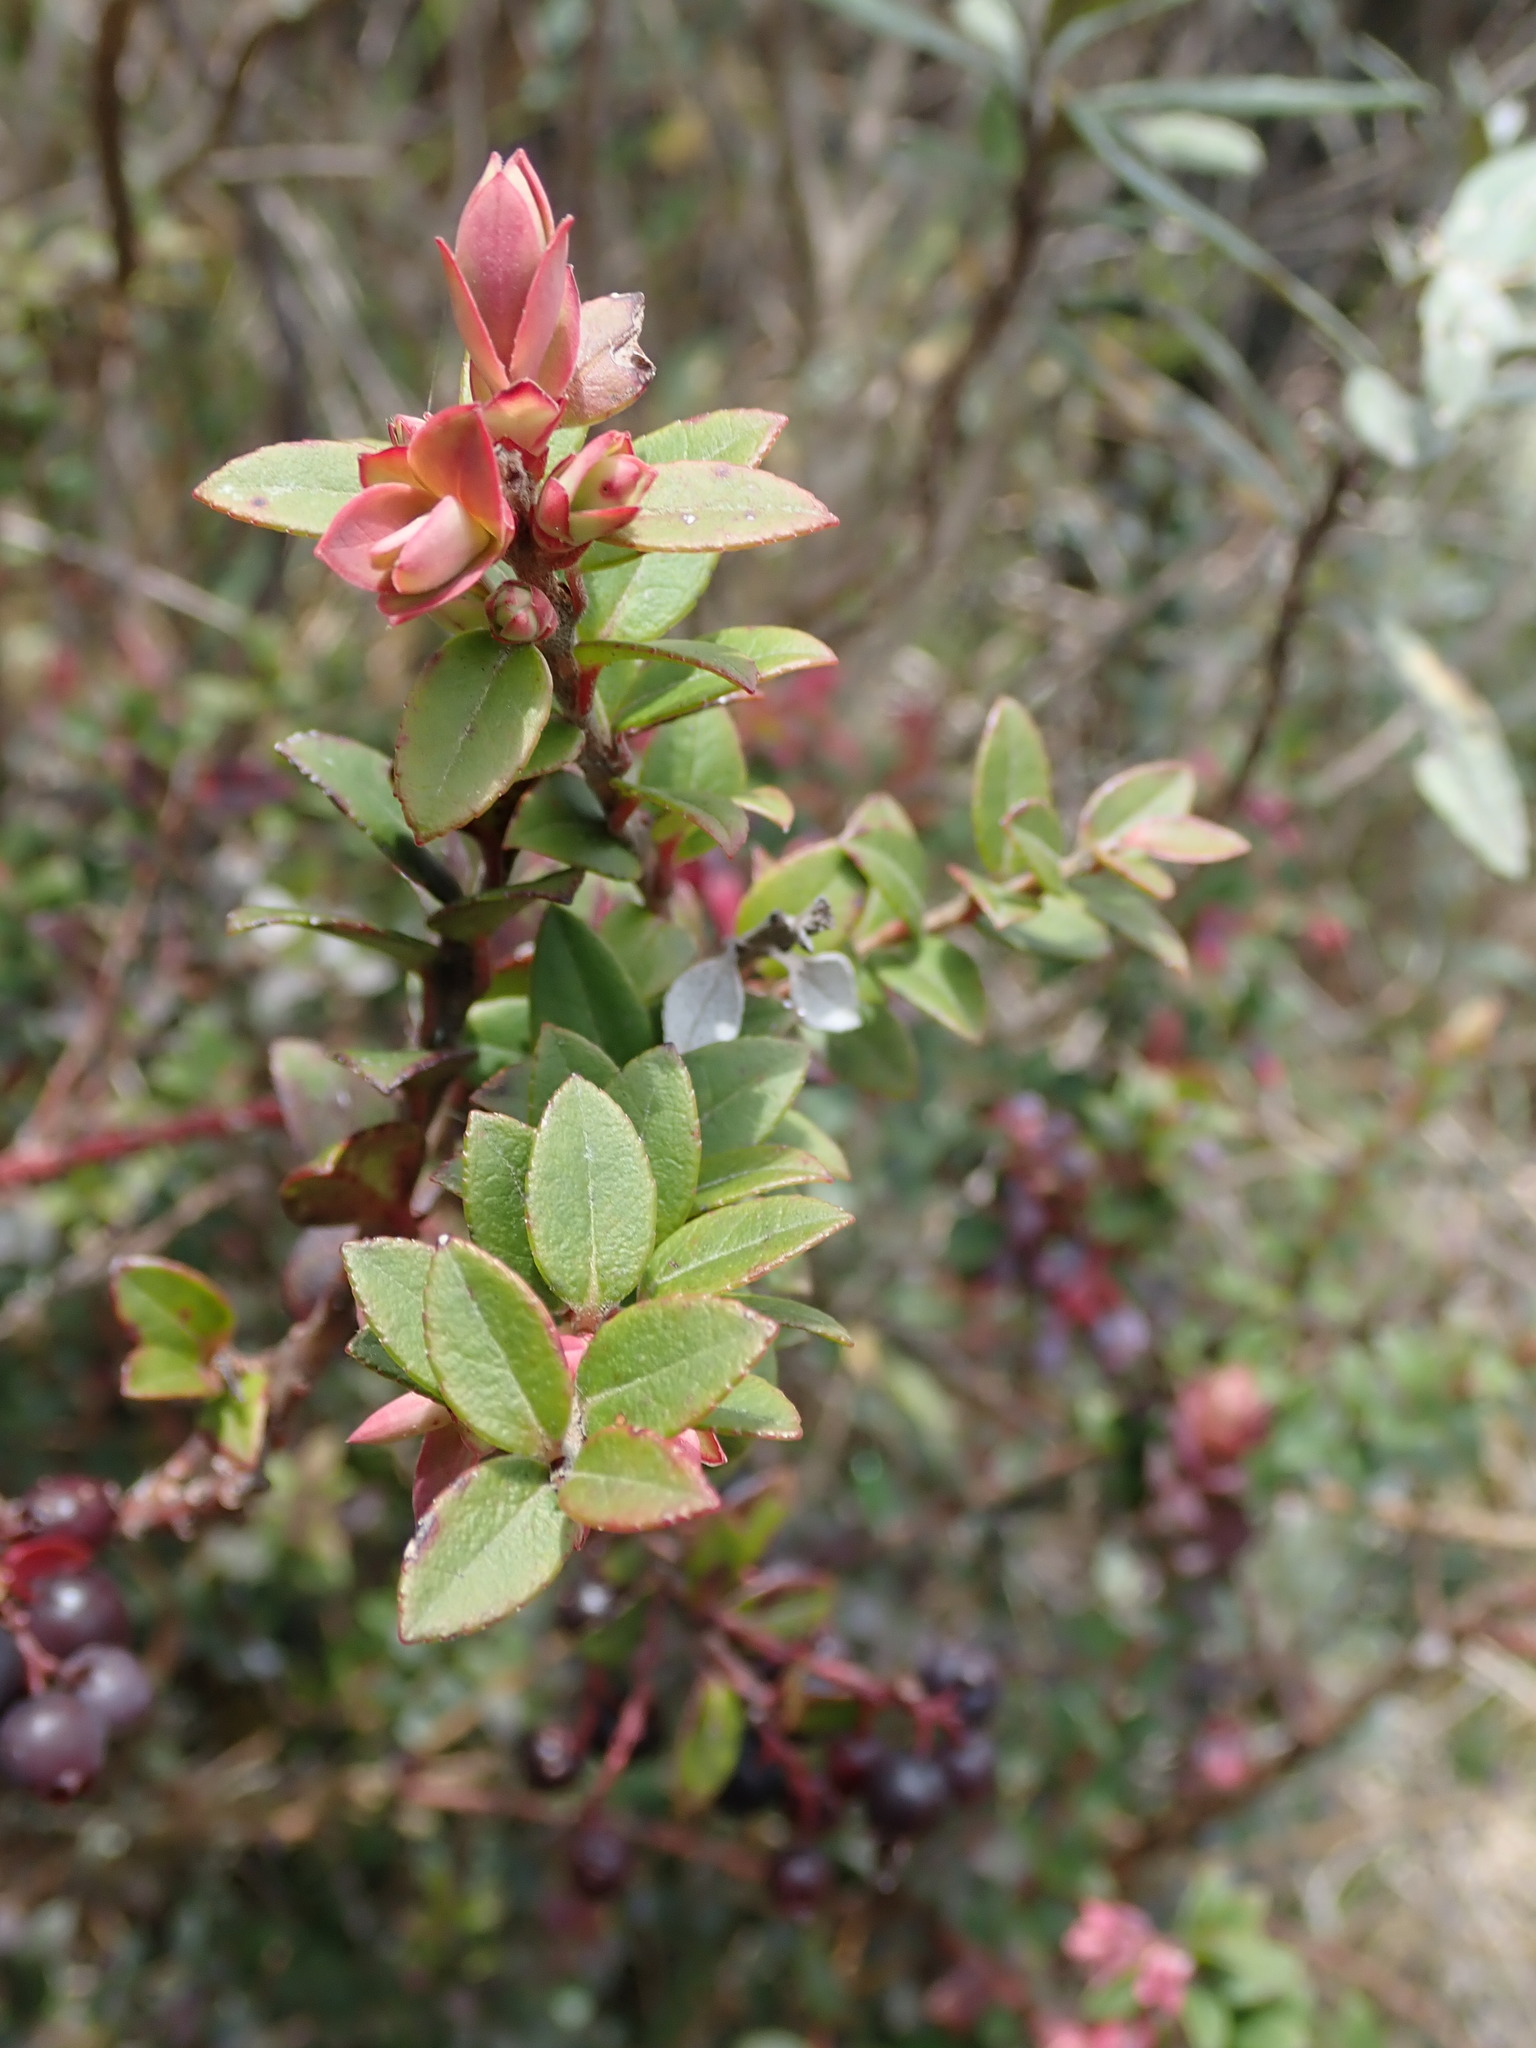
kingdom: Plantae
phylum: Tracheophyta
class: Magnoliopsida
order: Ericales
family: Ericaceae
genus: Vaccinium
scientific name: Vaccinium floribundum
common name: Colombian blueberry
